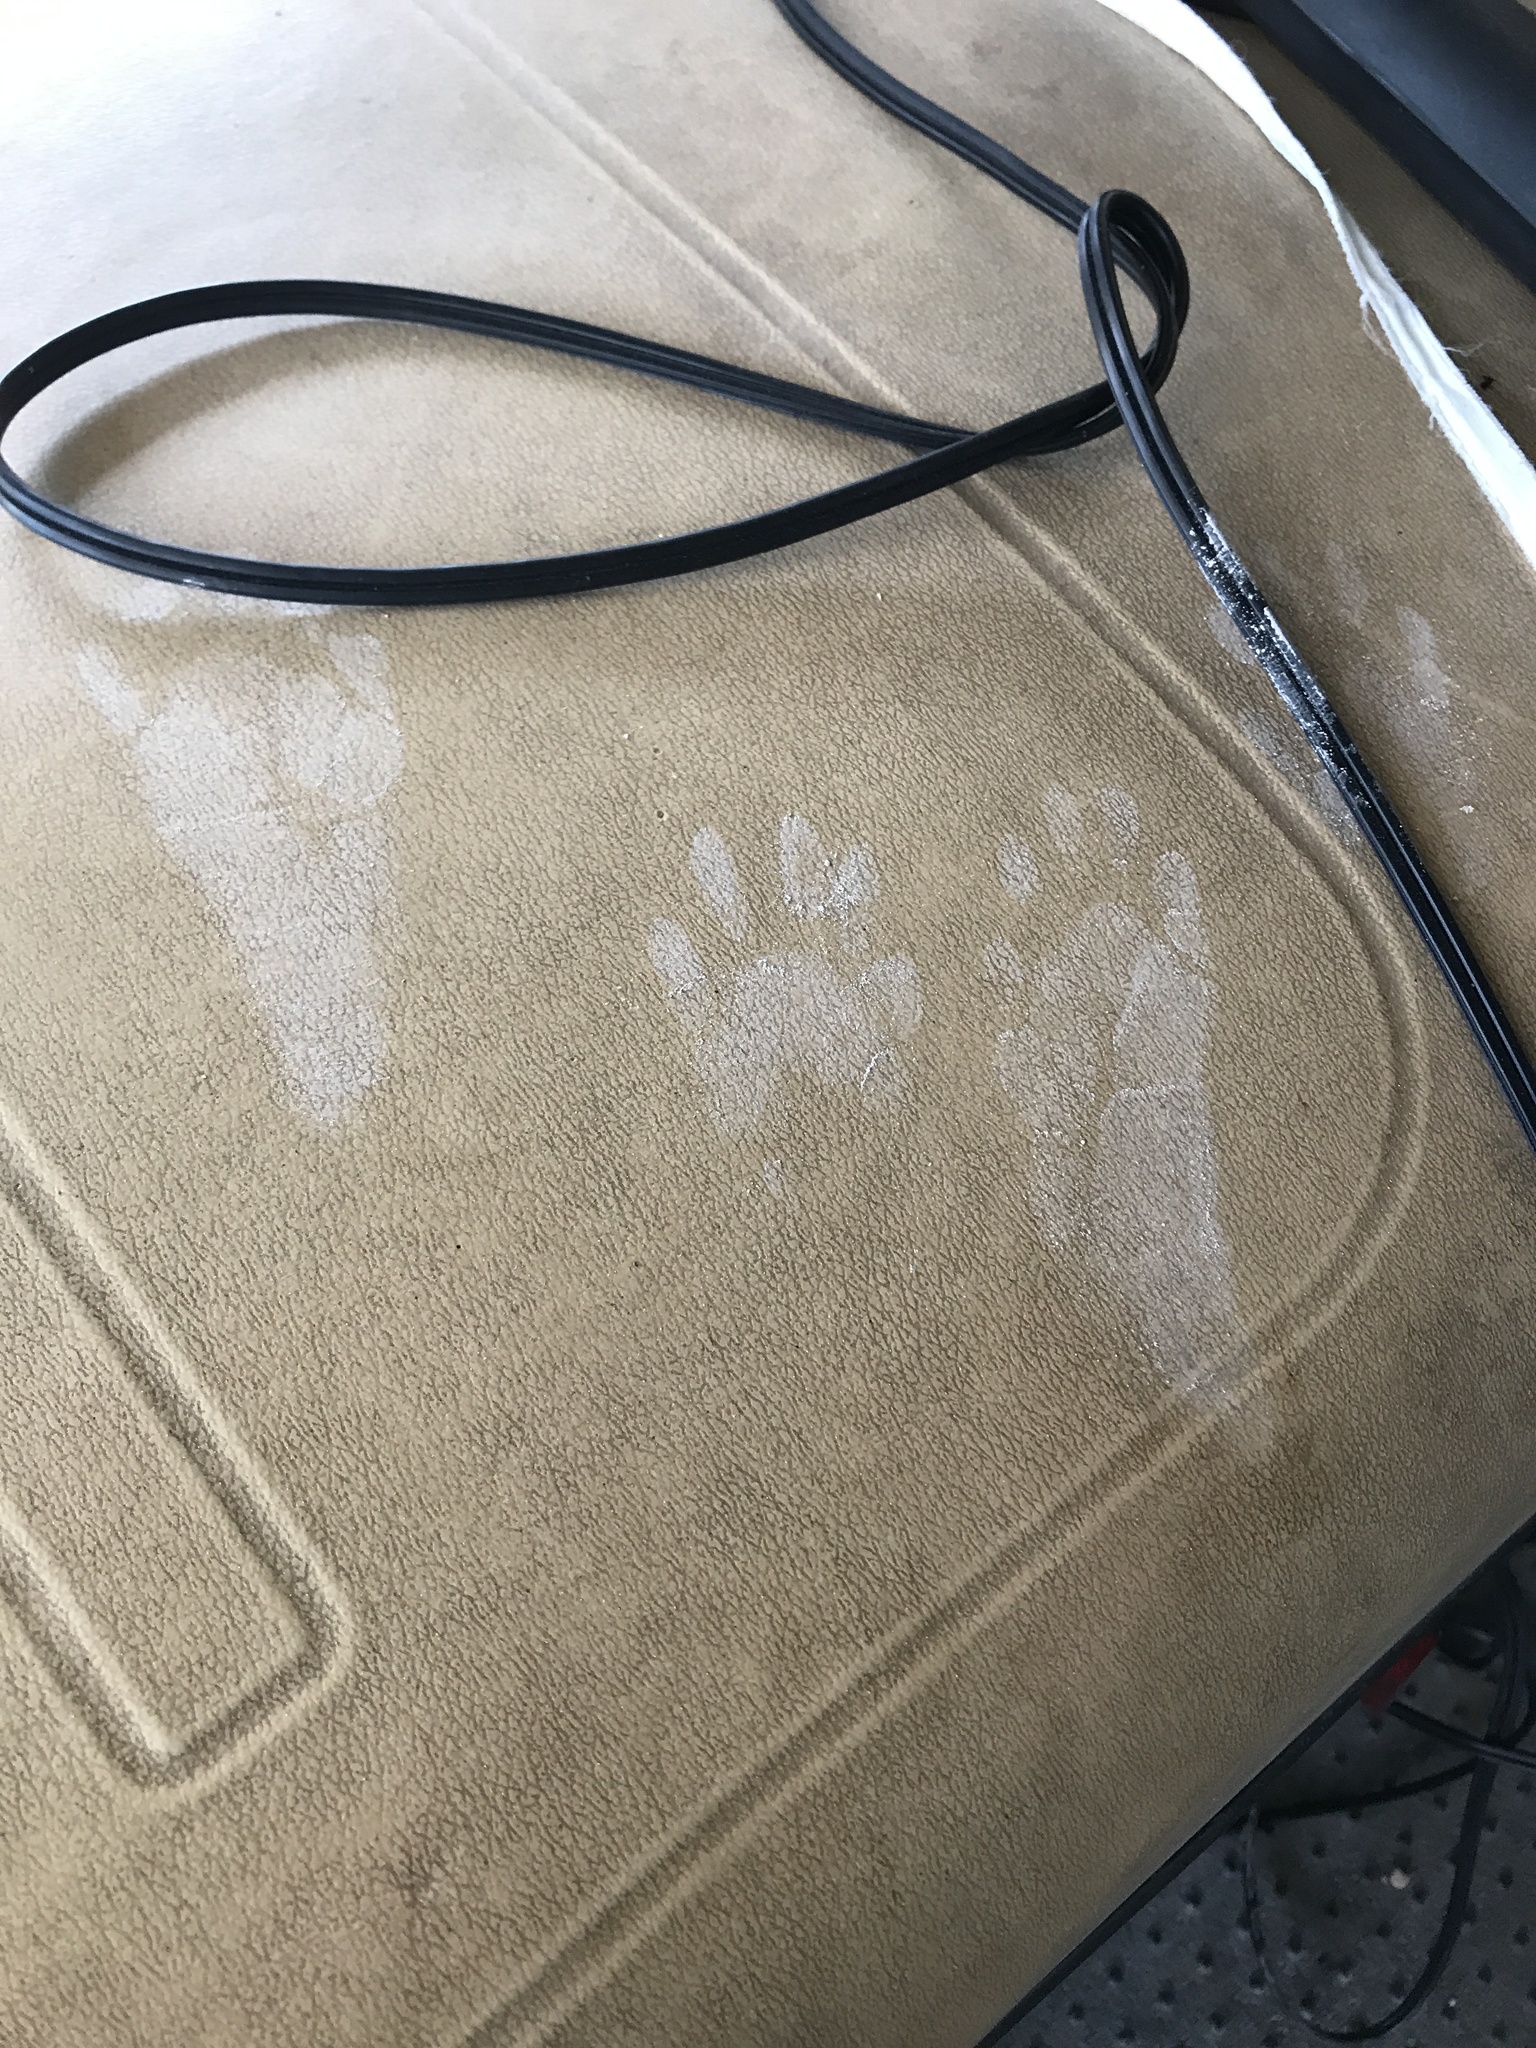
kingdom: Animalia
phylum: Chordata
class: Mammalia
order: Carnivora
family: Procyonidae
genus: Procyon
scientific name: Procyon lotor
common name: Raccoon
